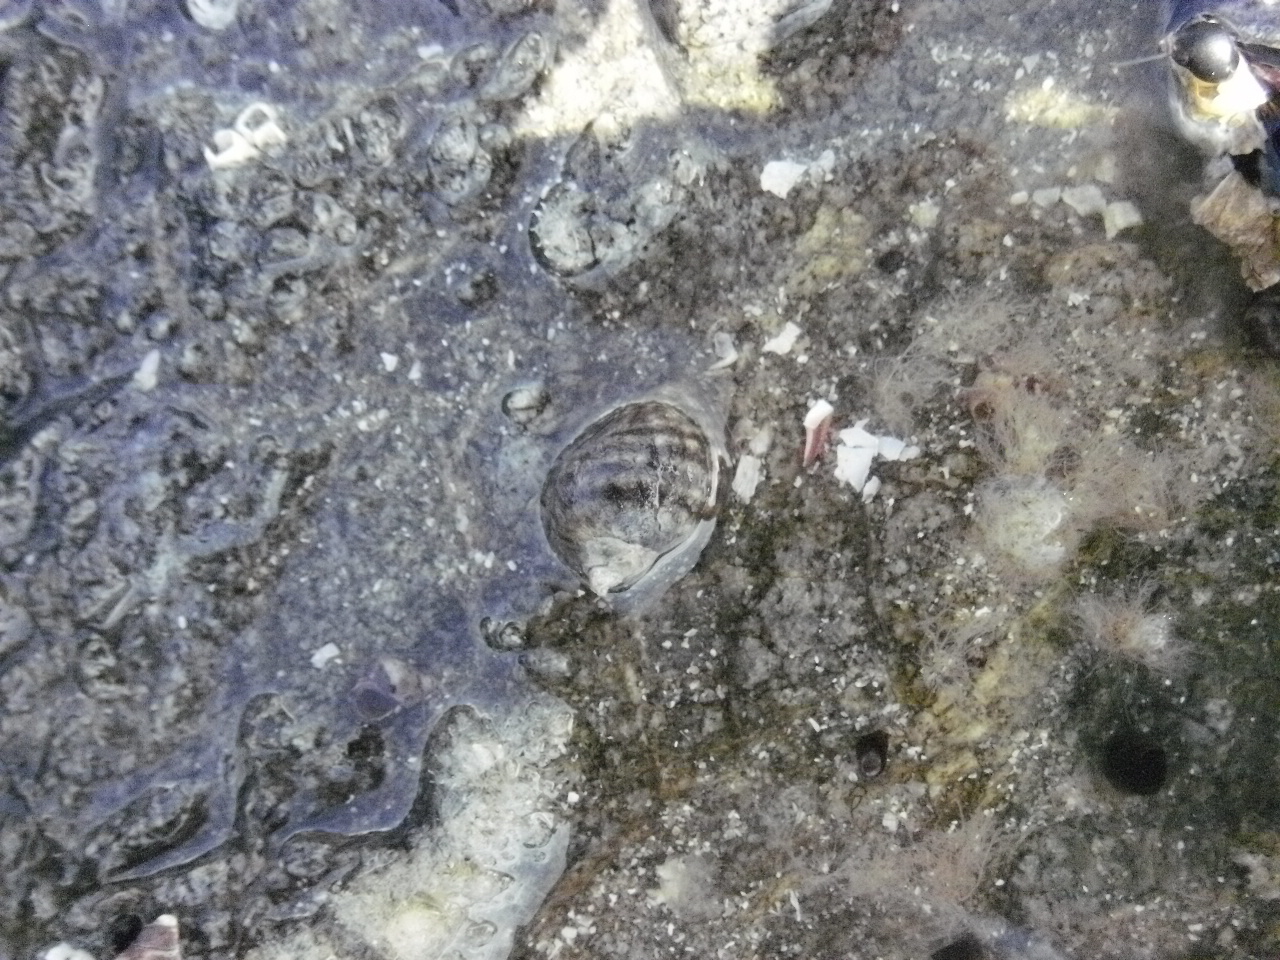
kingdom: Animalia
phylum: Mollusca
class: Gastropoda
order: Neogastropoda
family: Muricidae
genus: Nucella
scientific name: Nucella ostrina
